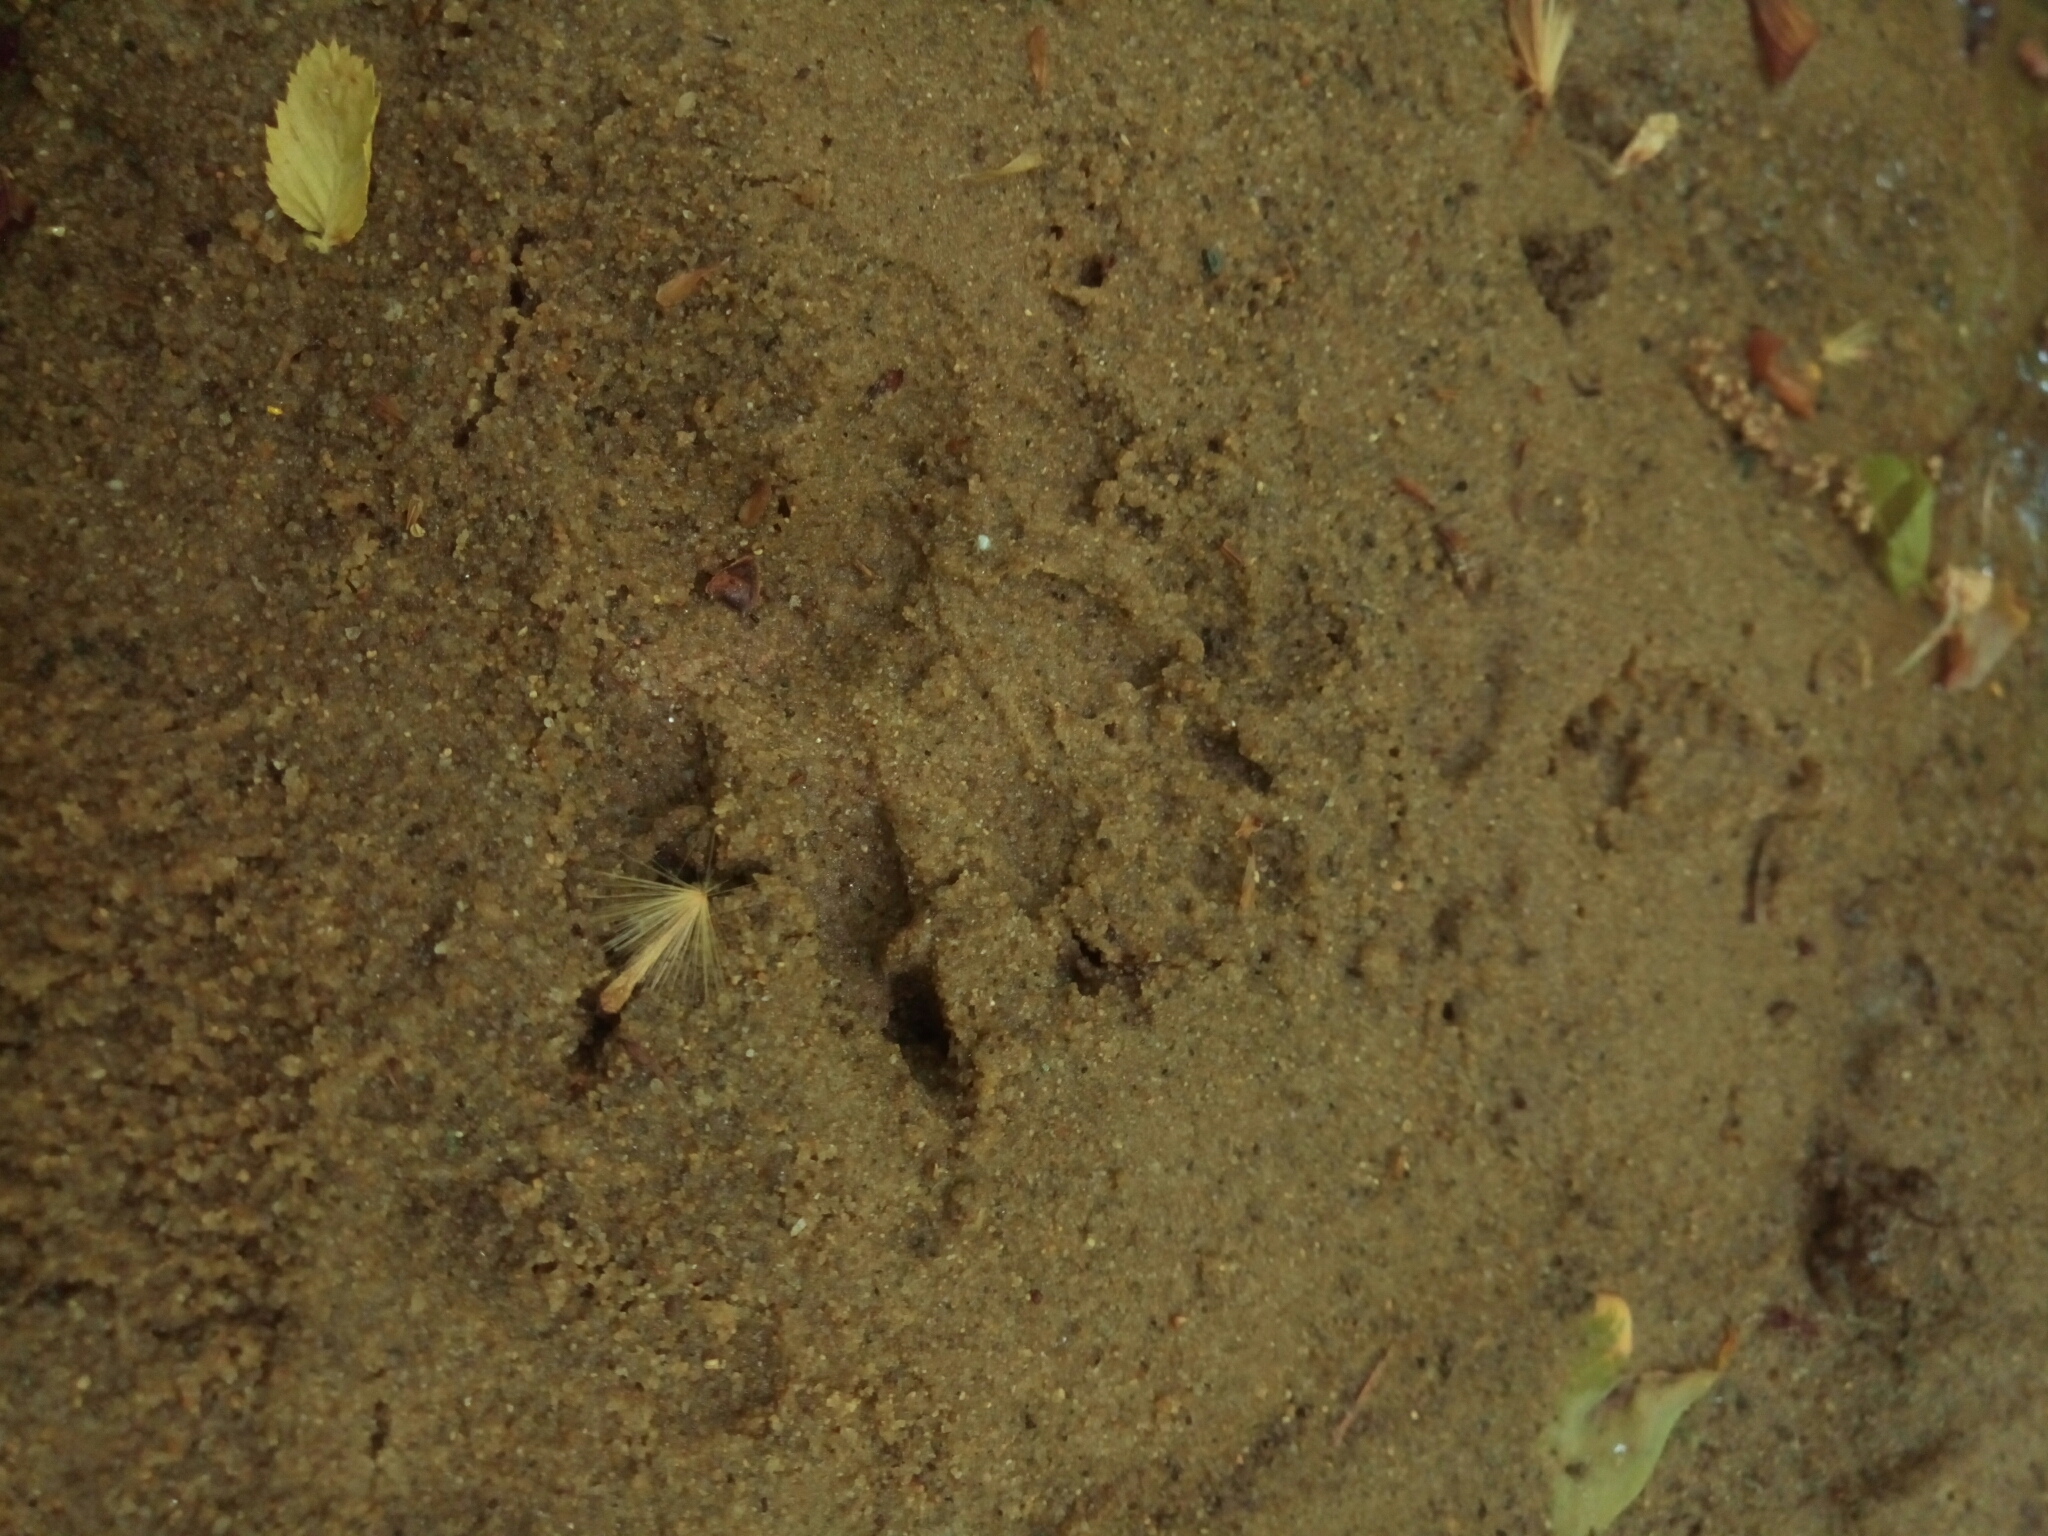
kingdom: Animalia
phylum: Chordata
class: Mammalia
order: Carnivora
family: Procyonidae
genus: Procyon
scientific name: Procyon lotor
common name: Raccoon
